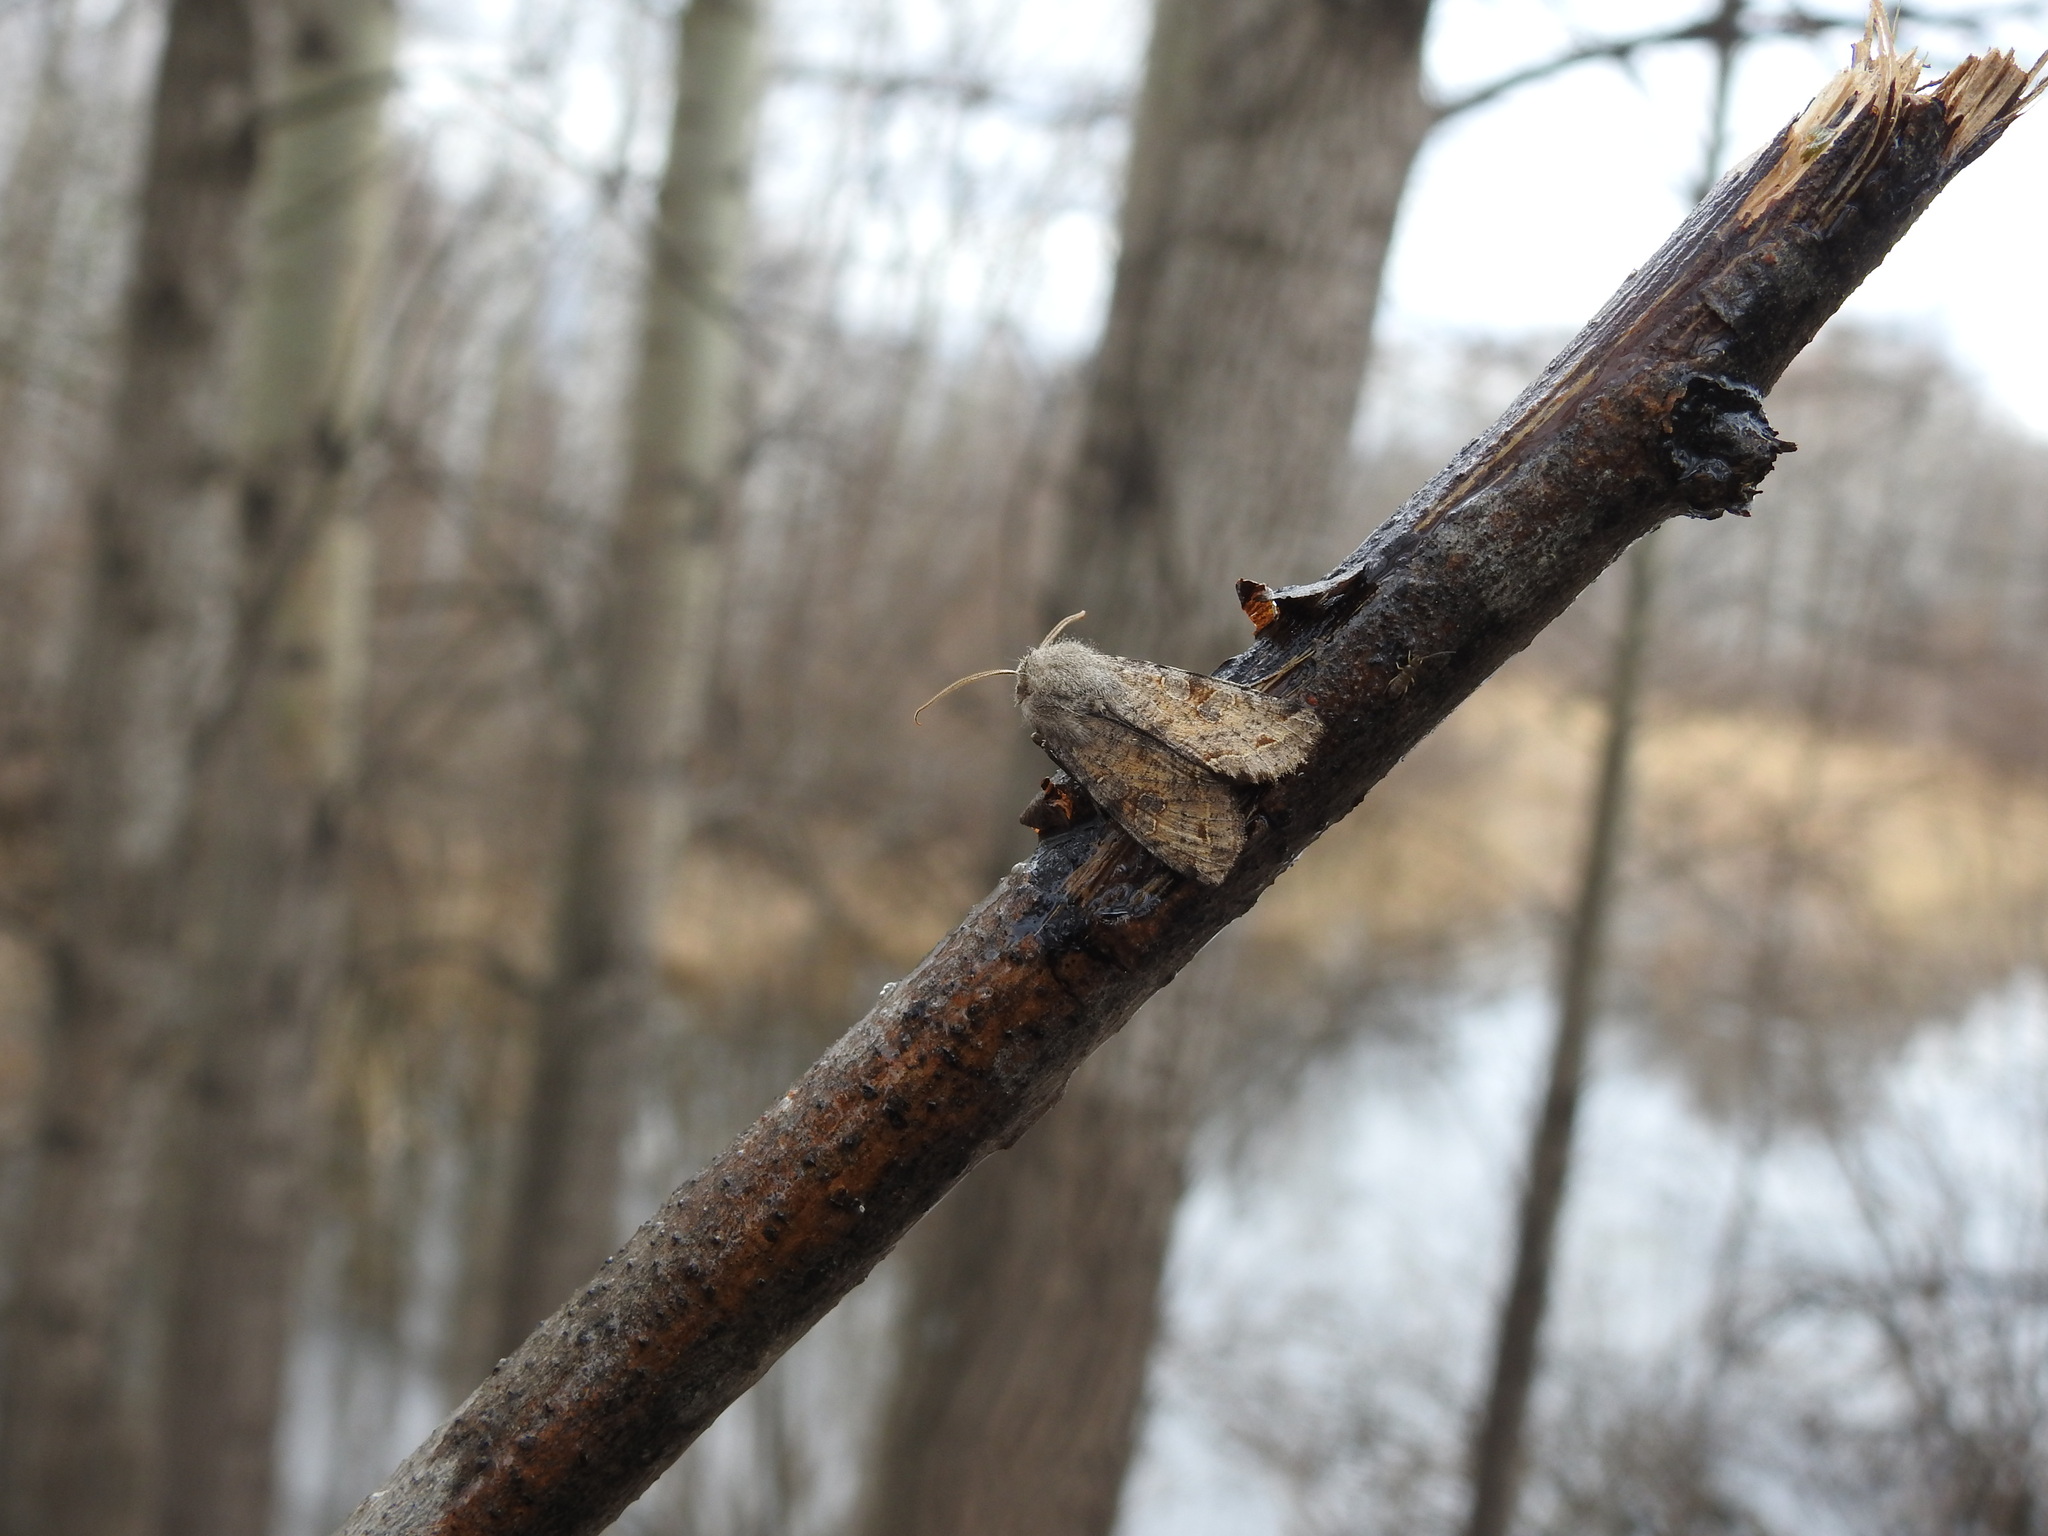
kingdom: Animalia
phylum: Arthropoda
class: Insecta
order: Lepidoptera
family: Noctuidae
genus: Orthosia
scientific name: Orthosia incerta
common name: Clouded drab
